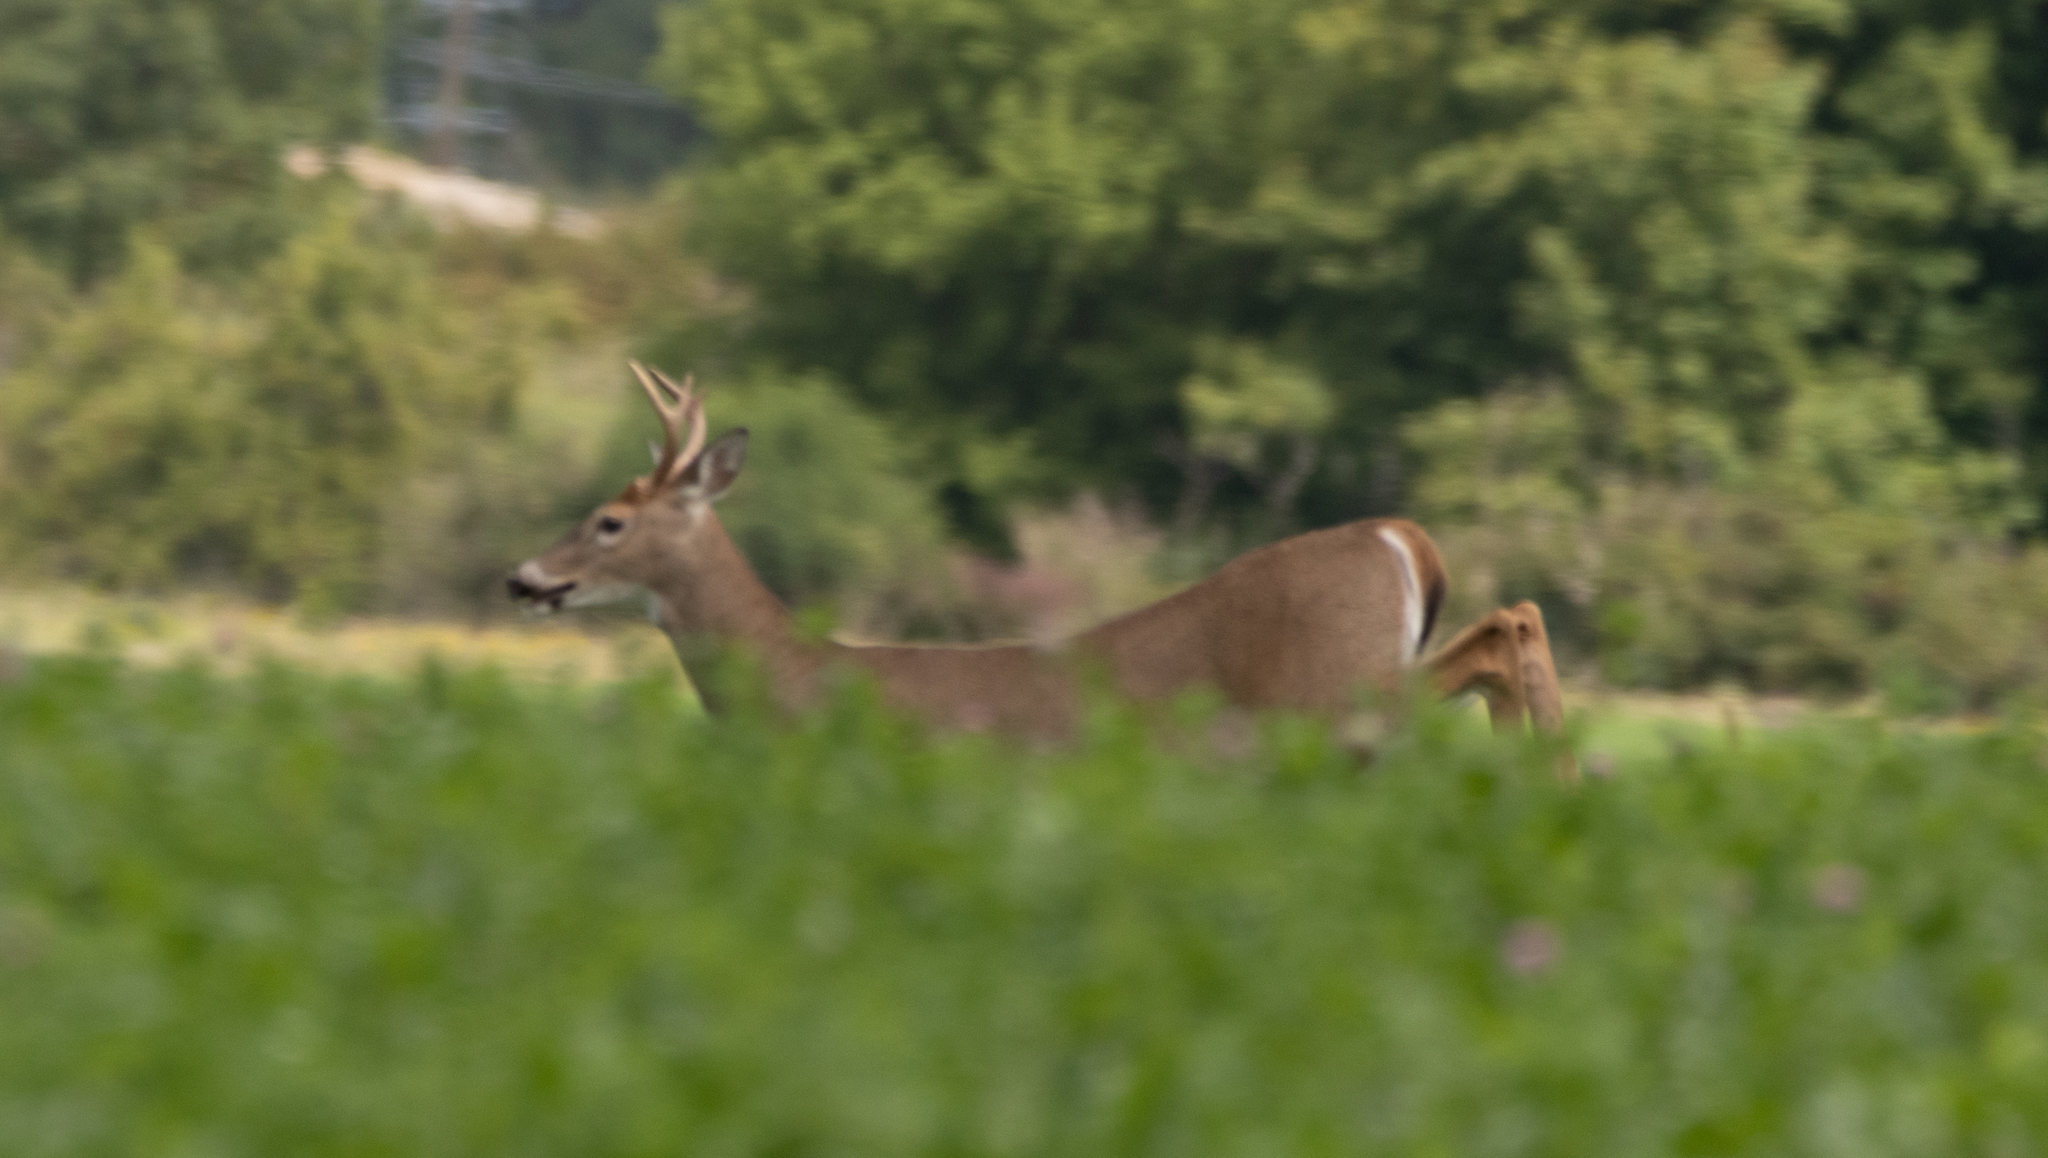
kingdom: Animalia
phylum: Chordata
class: Mammalia
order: Artiodactyla
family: Cervidae
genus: Odocoileus
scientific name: Odocoileus virginianus
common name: White-tailed deer
